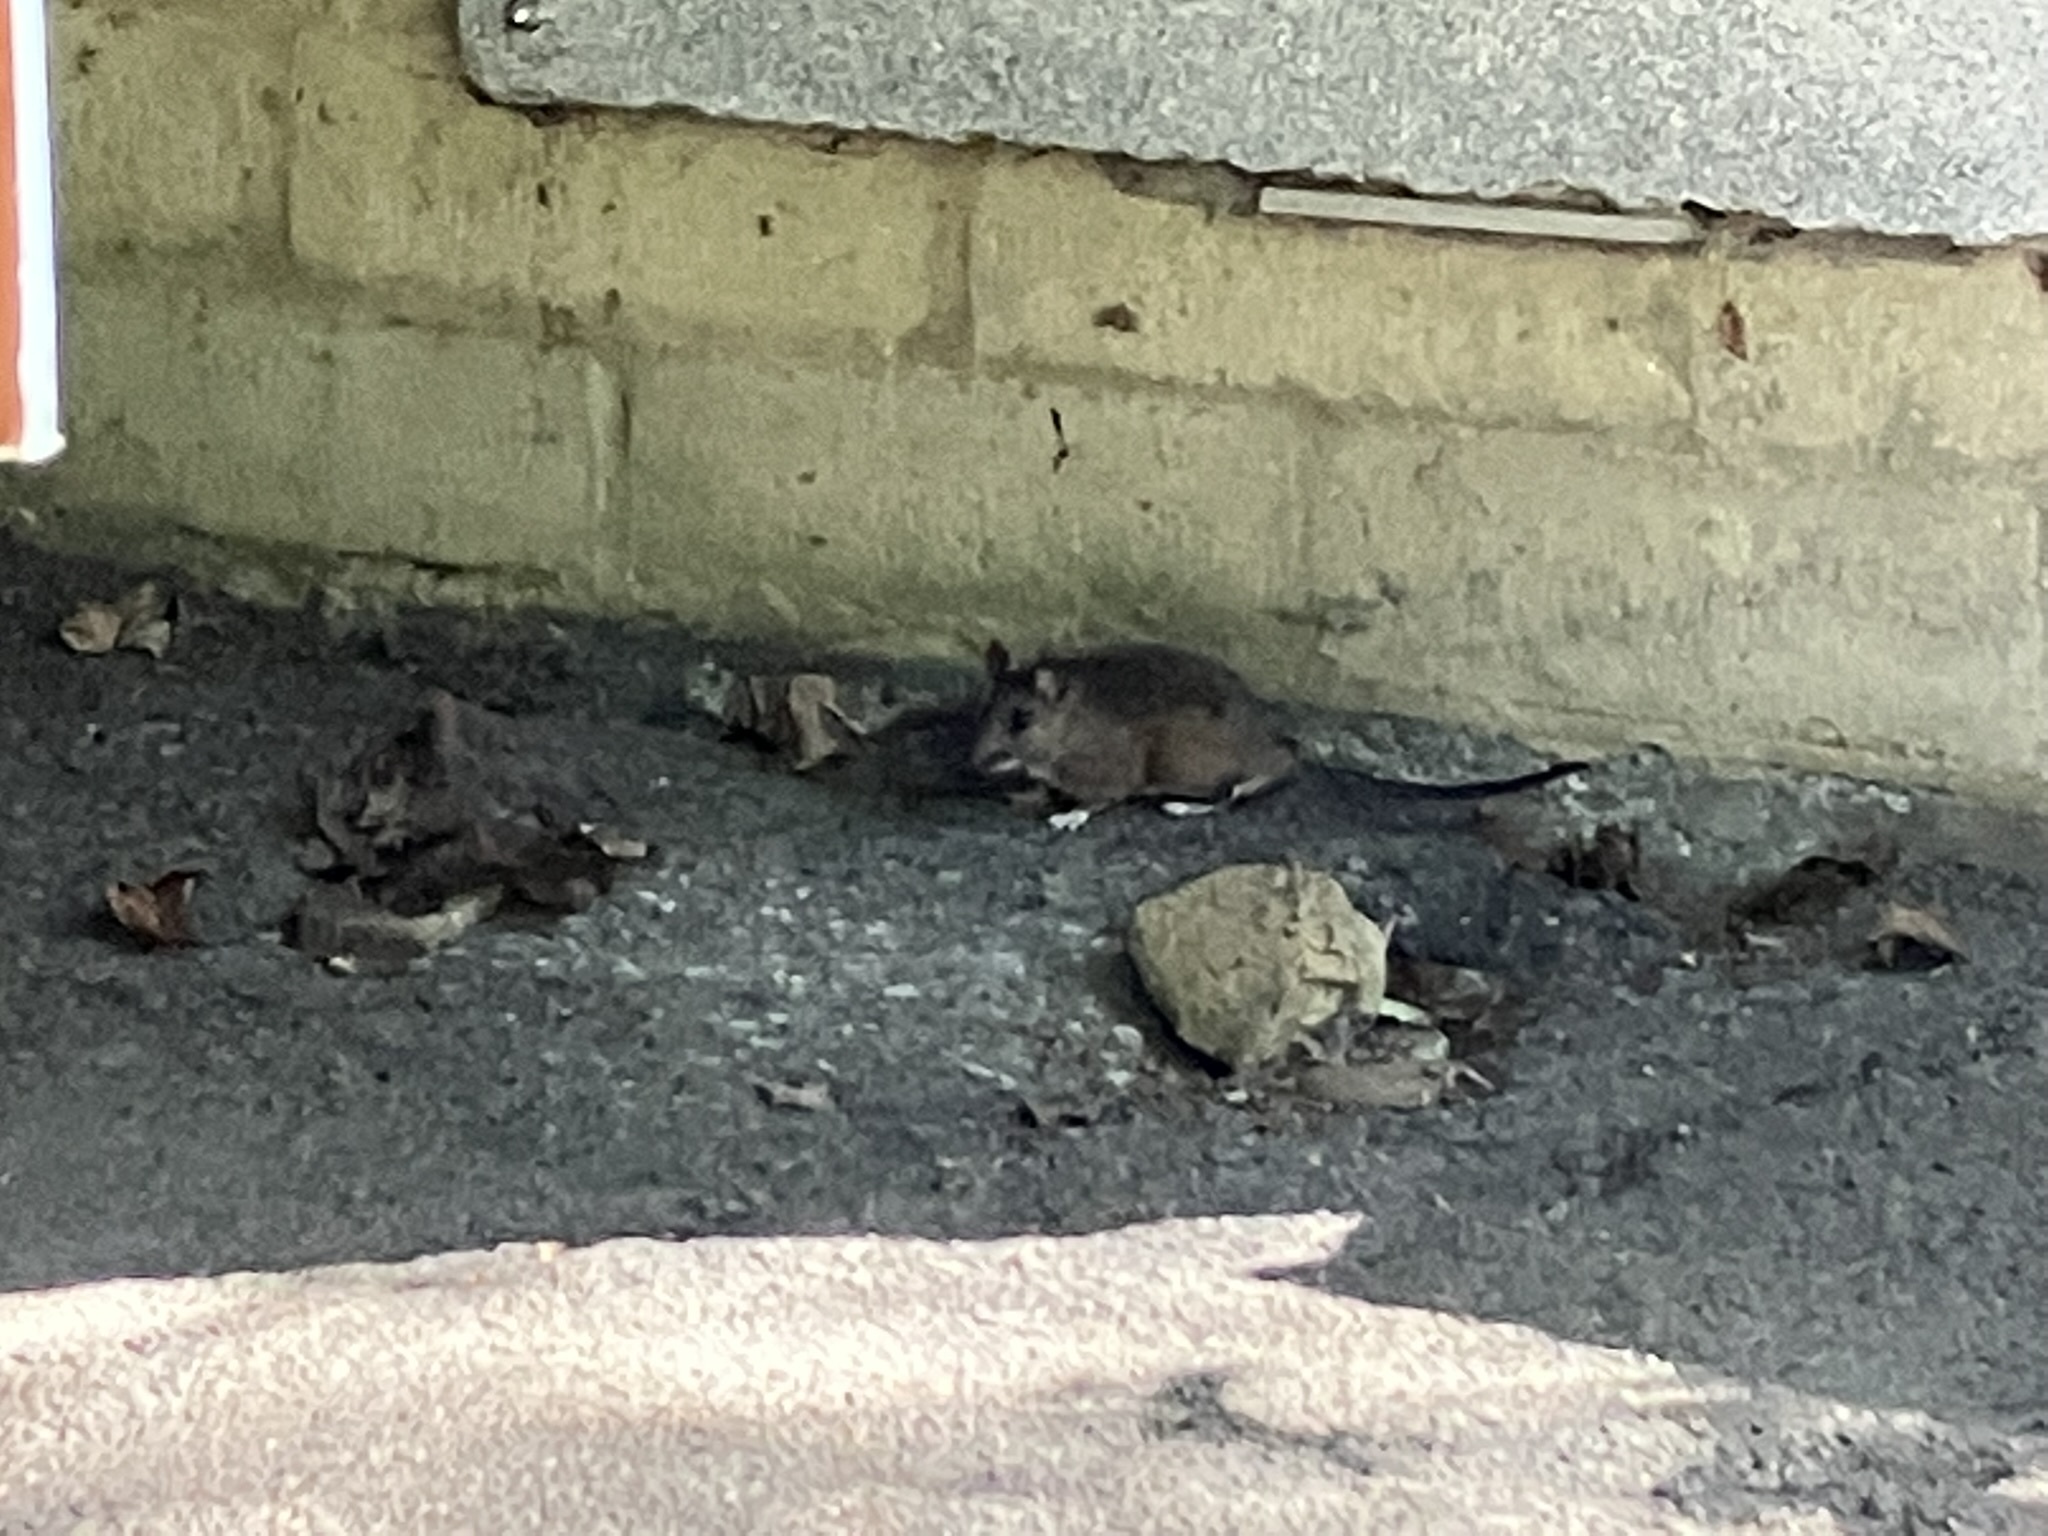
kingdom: Animalia
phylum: Chordata
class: Mammalia
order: Rodentia
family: Cricetidae
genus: Neotoma
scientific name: Neotoma fuscipes
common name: Dusky-footed woodrat
